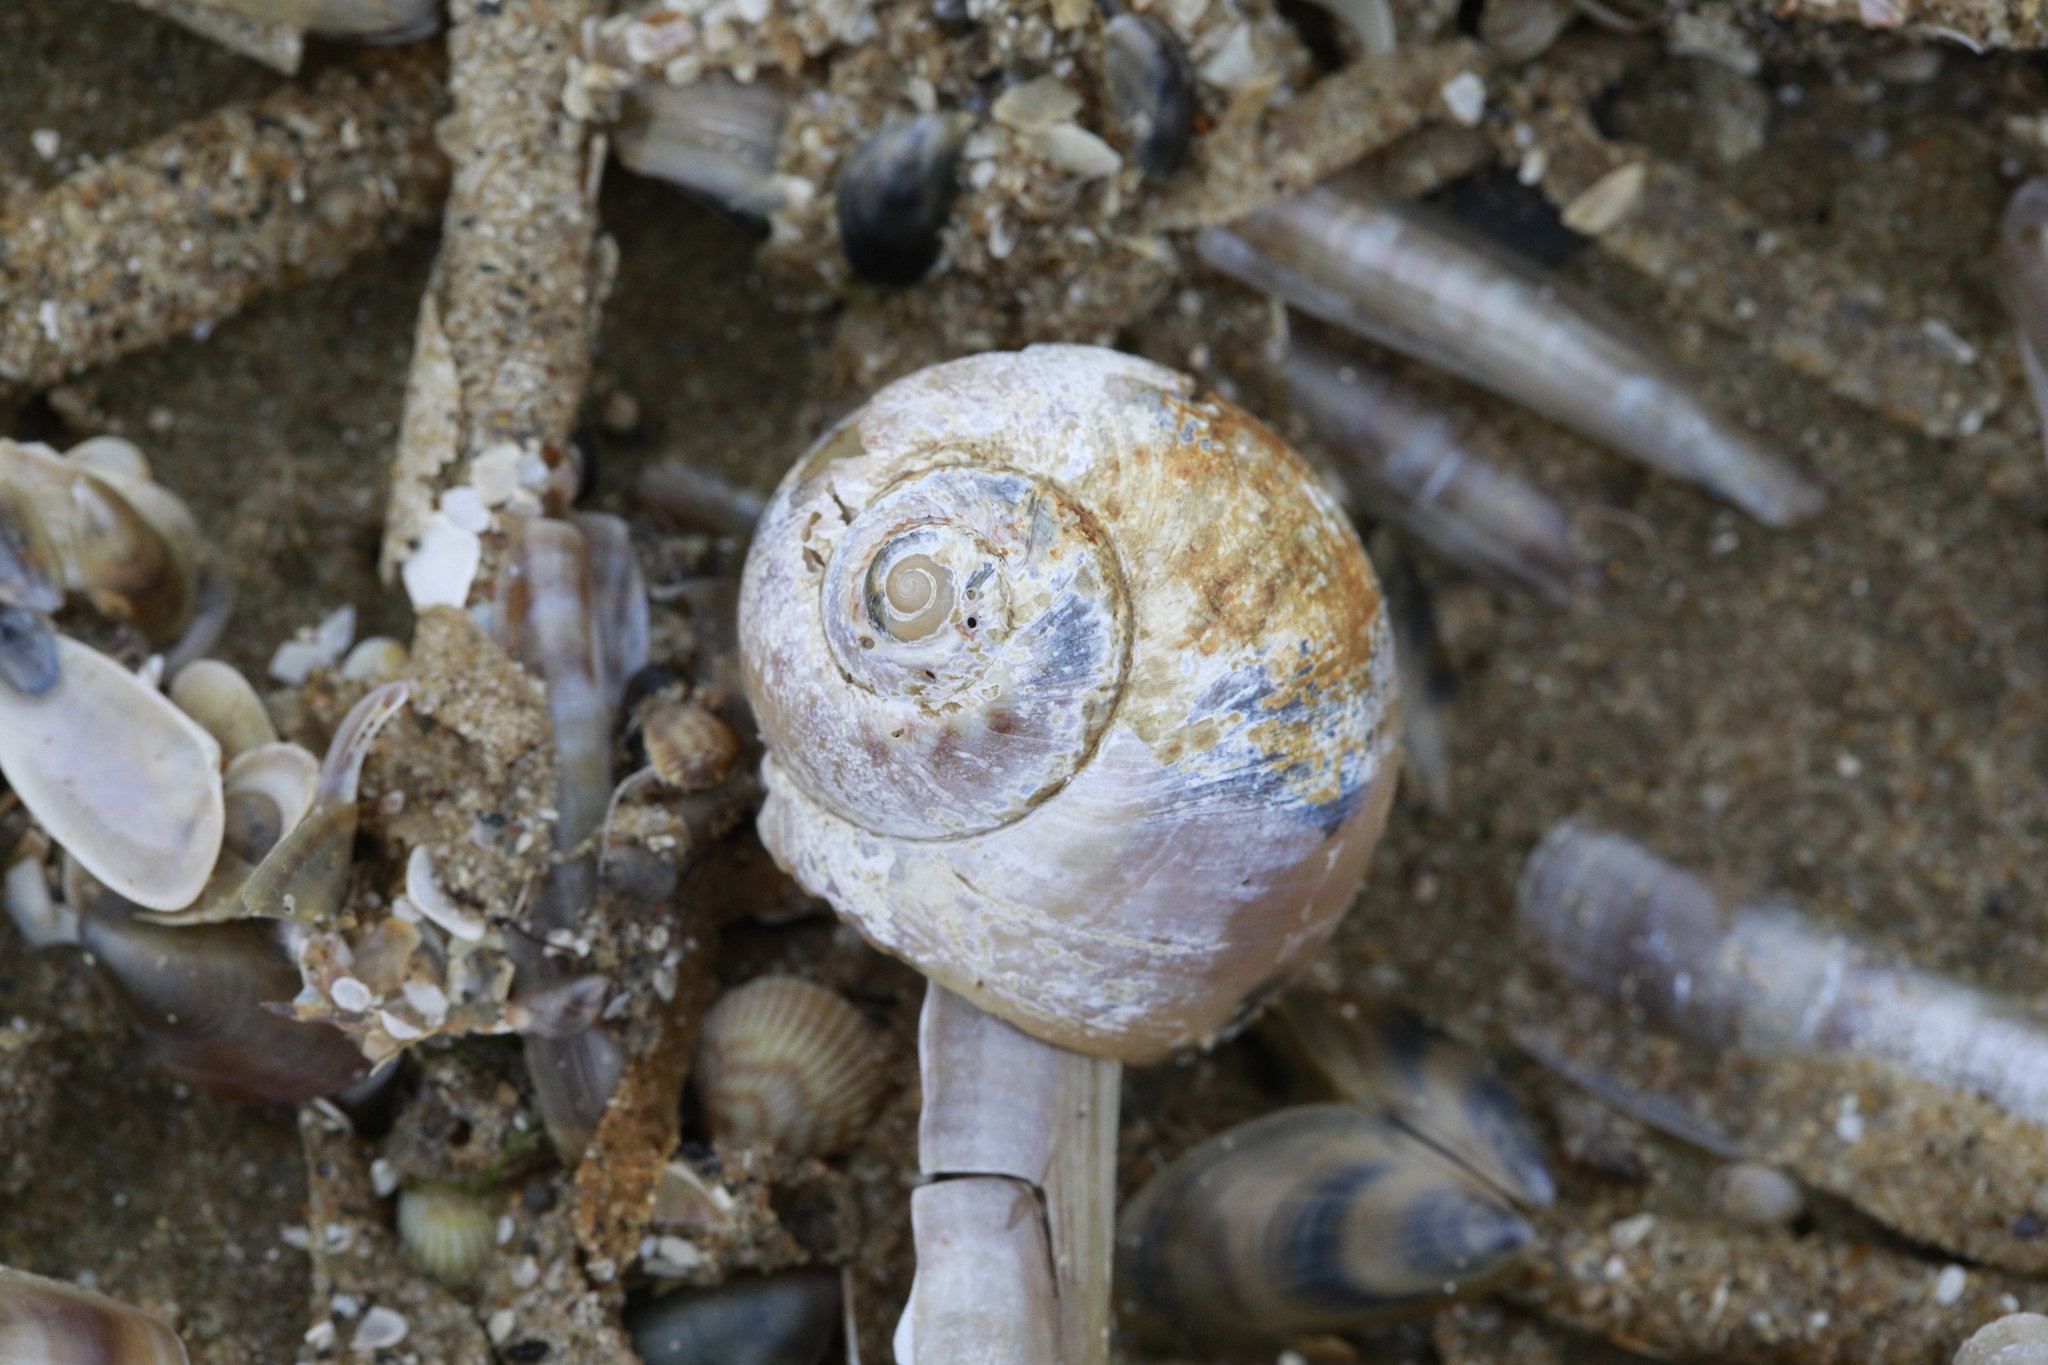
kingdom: Animalia
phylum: Mollusca
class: Gastropoda
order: Littorinimorpha
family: Naticidae
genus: Euspira
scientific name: Euspira catena
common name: Necklace shell
